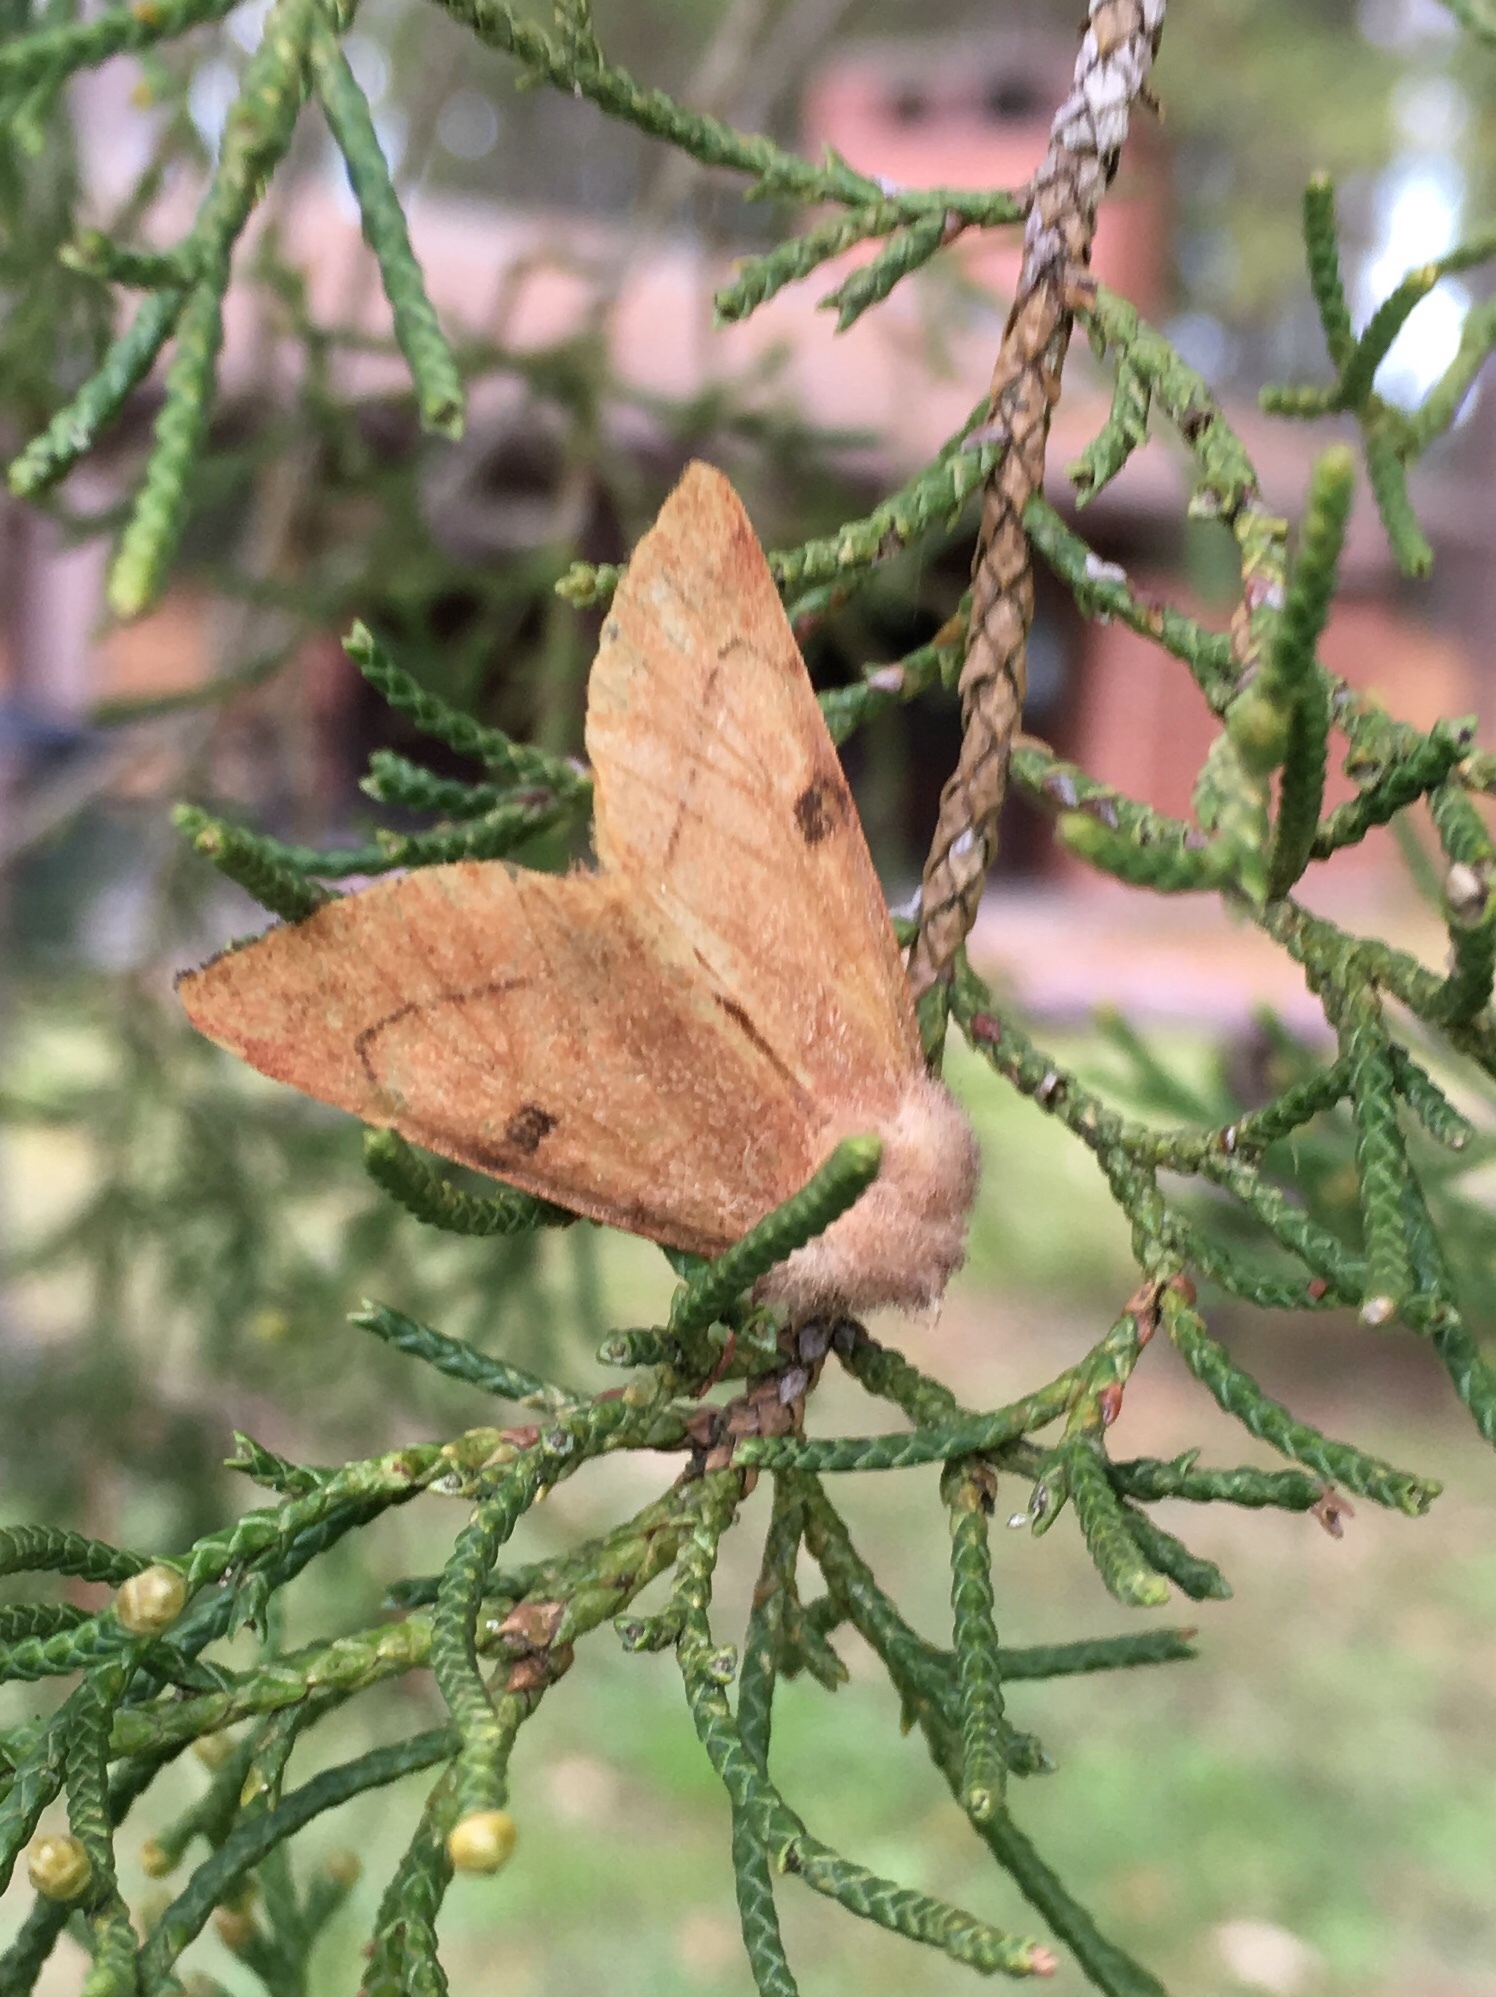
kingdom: Animalia
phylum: Arthropoda
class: Insecta
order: Lepidoptera
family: Noctuidae
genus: Choephora
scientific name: Choephora fungorum
